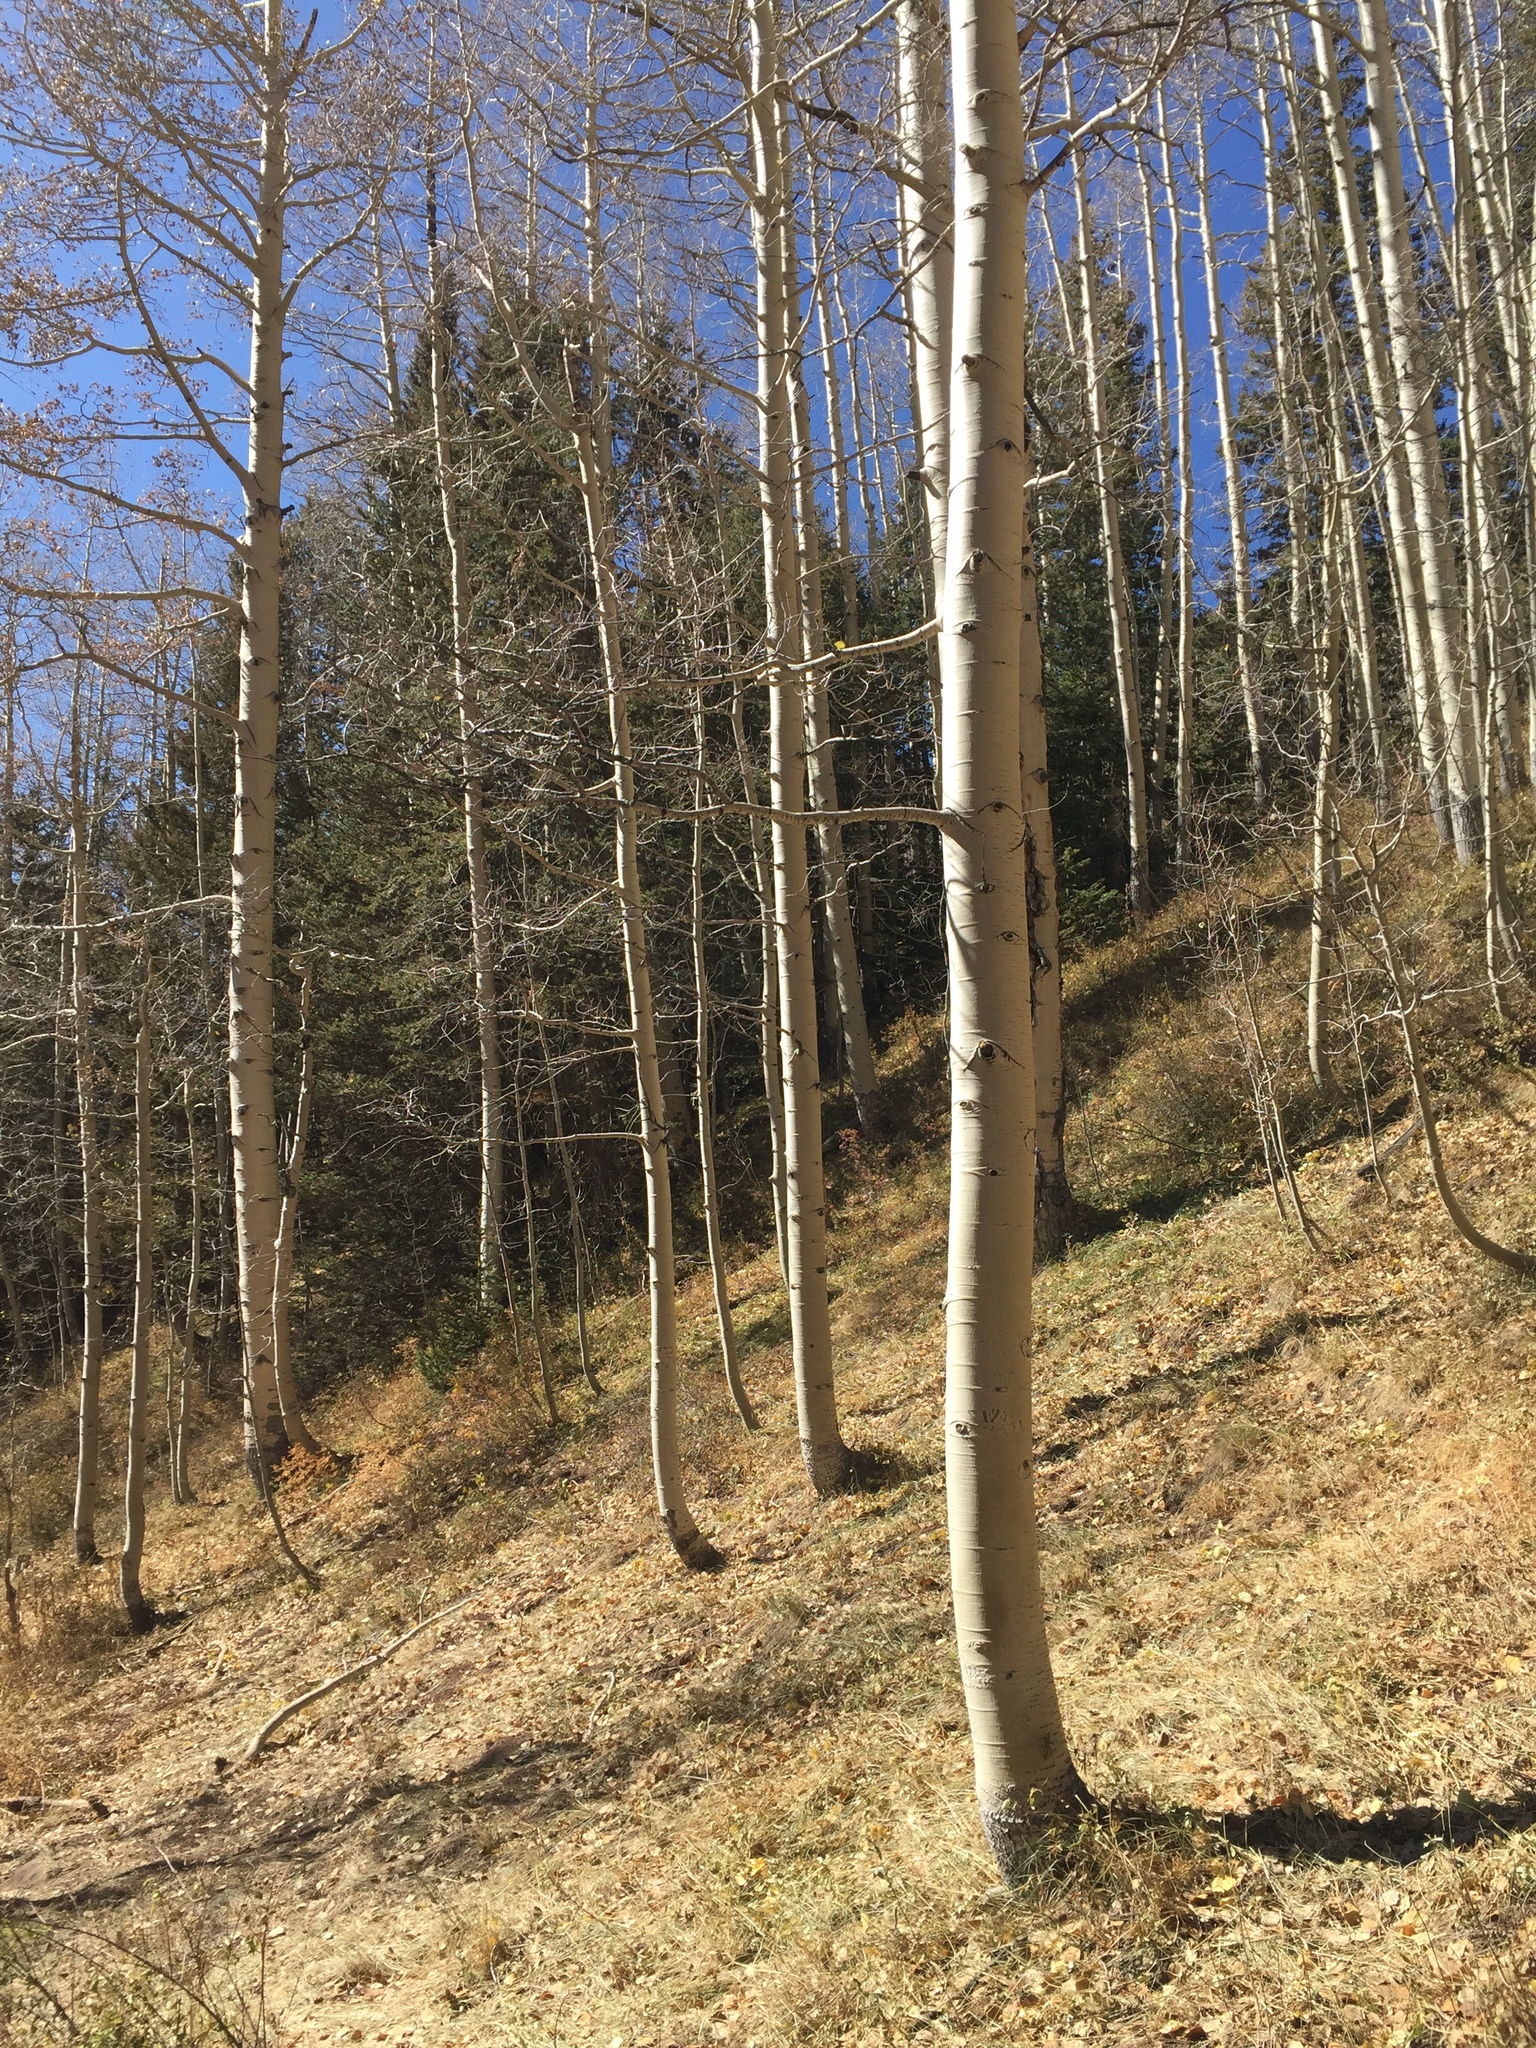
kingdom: Plantae
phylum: Tracheophyta
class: Magnoliopsida
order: Malpighiales
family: Salicaceae
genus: Populus
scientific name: Populus tremuloides
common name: Quaking aspen
